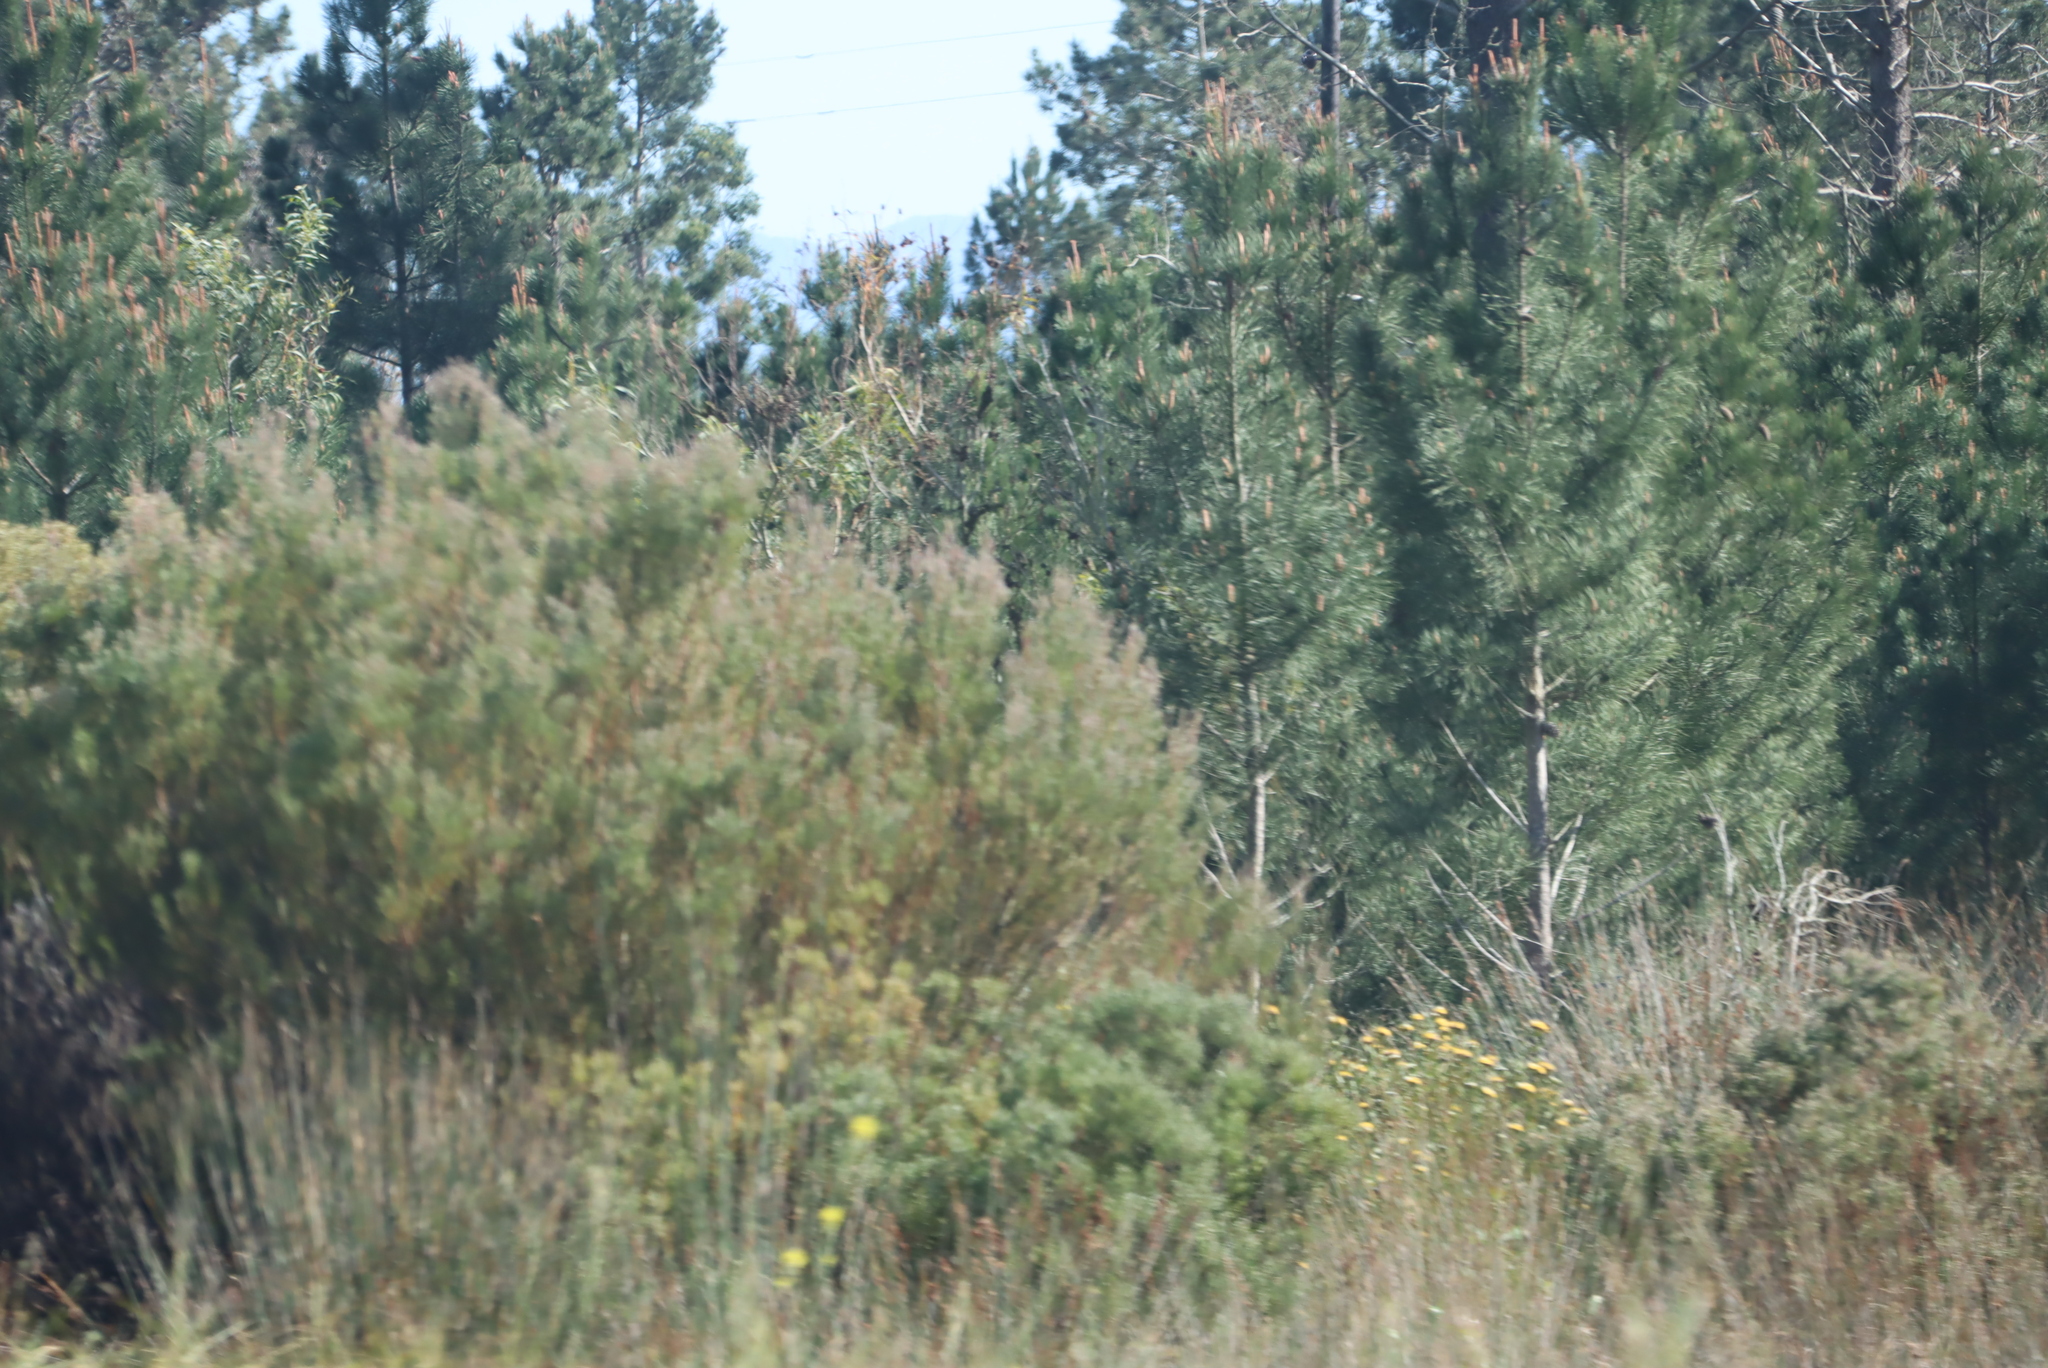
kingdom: Plantae
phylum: Tracheophyta
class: Magnoliopsida
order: Proteales
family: Proteaceae
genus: Leucadendron
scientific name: Leucadendron galpinii
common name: Hairless conebush
